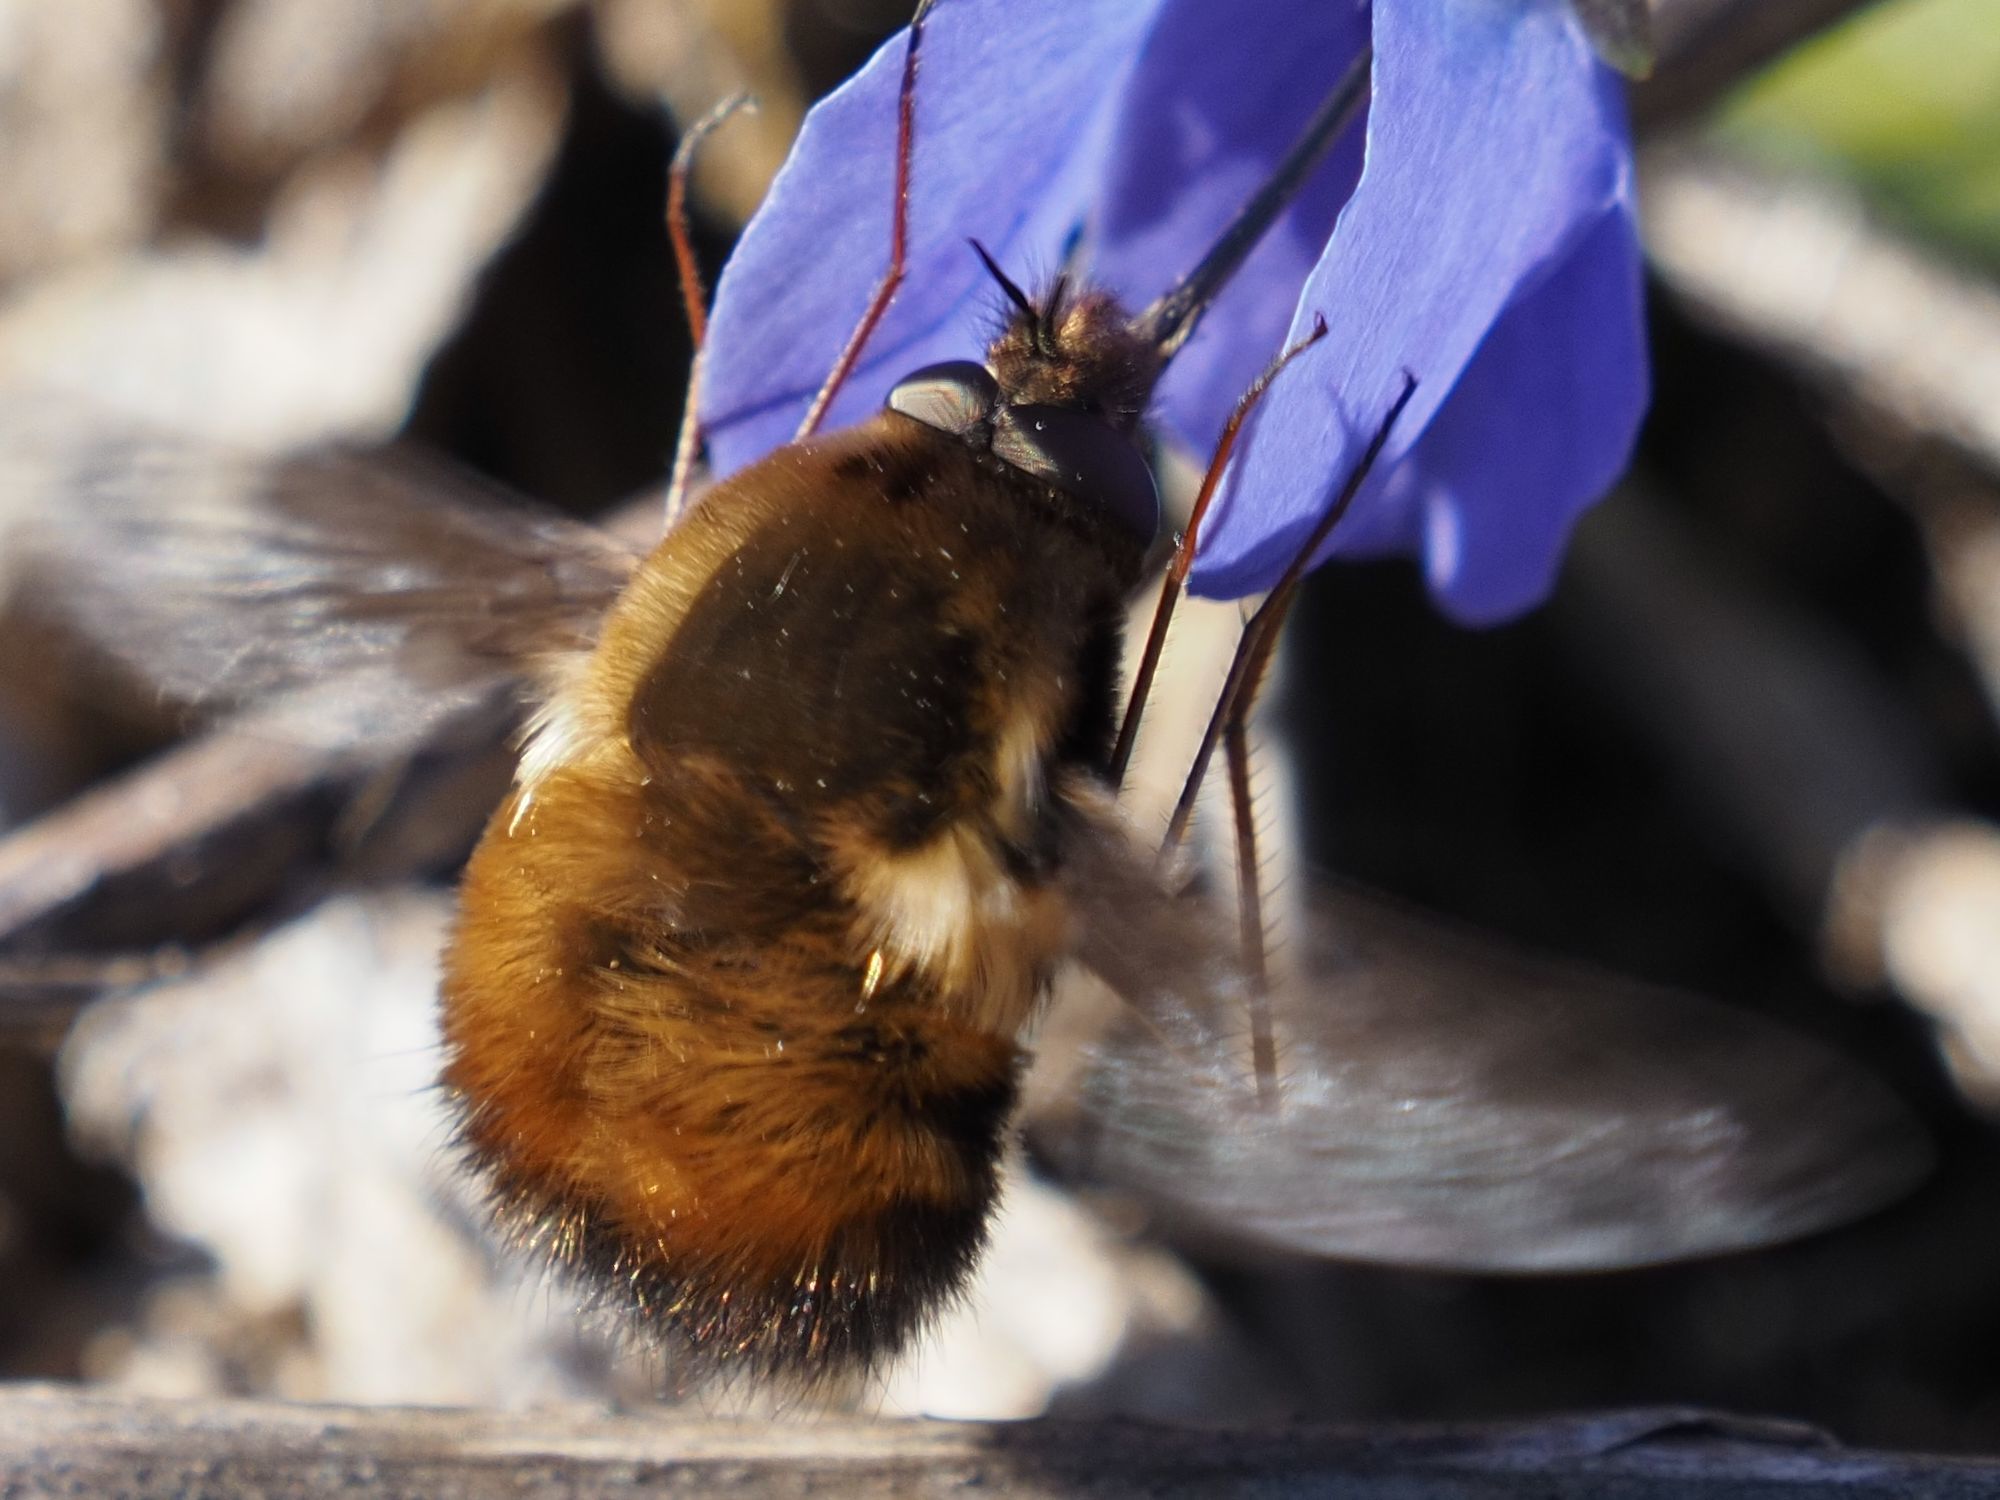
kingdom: Animalia
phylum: Arthropoda
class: Insecta
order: Diptera
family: Bombyliidae
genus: Bombylius
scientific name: Bombylius discolor
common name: Dotted bee-fly
